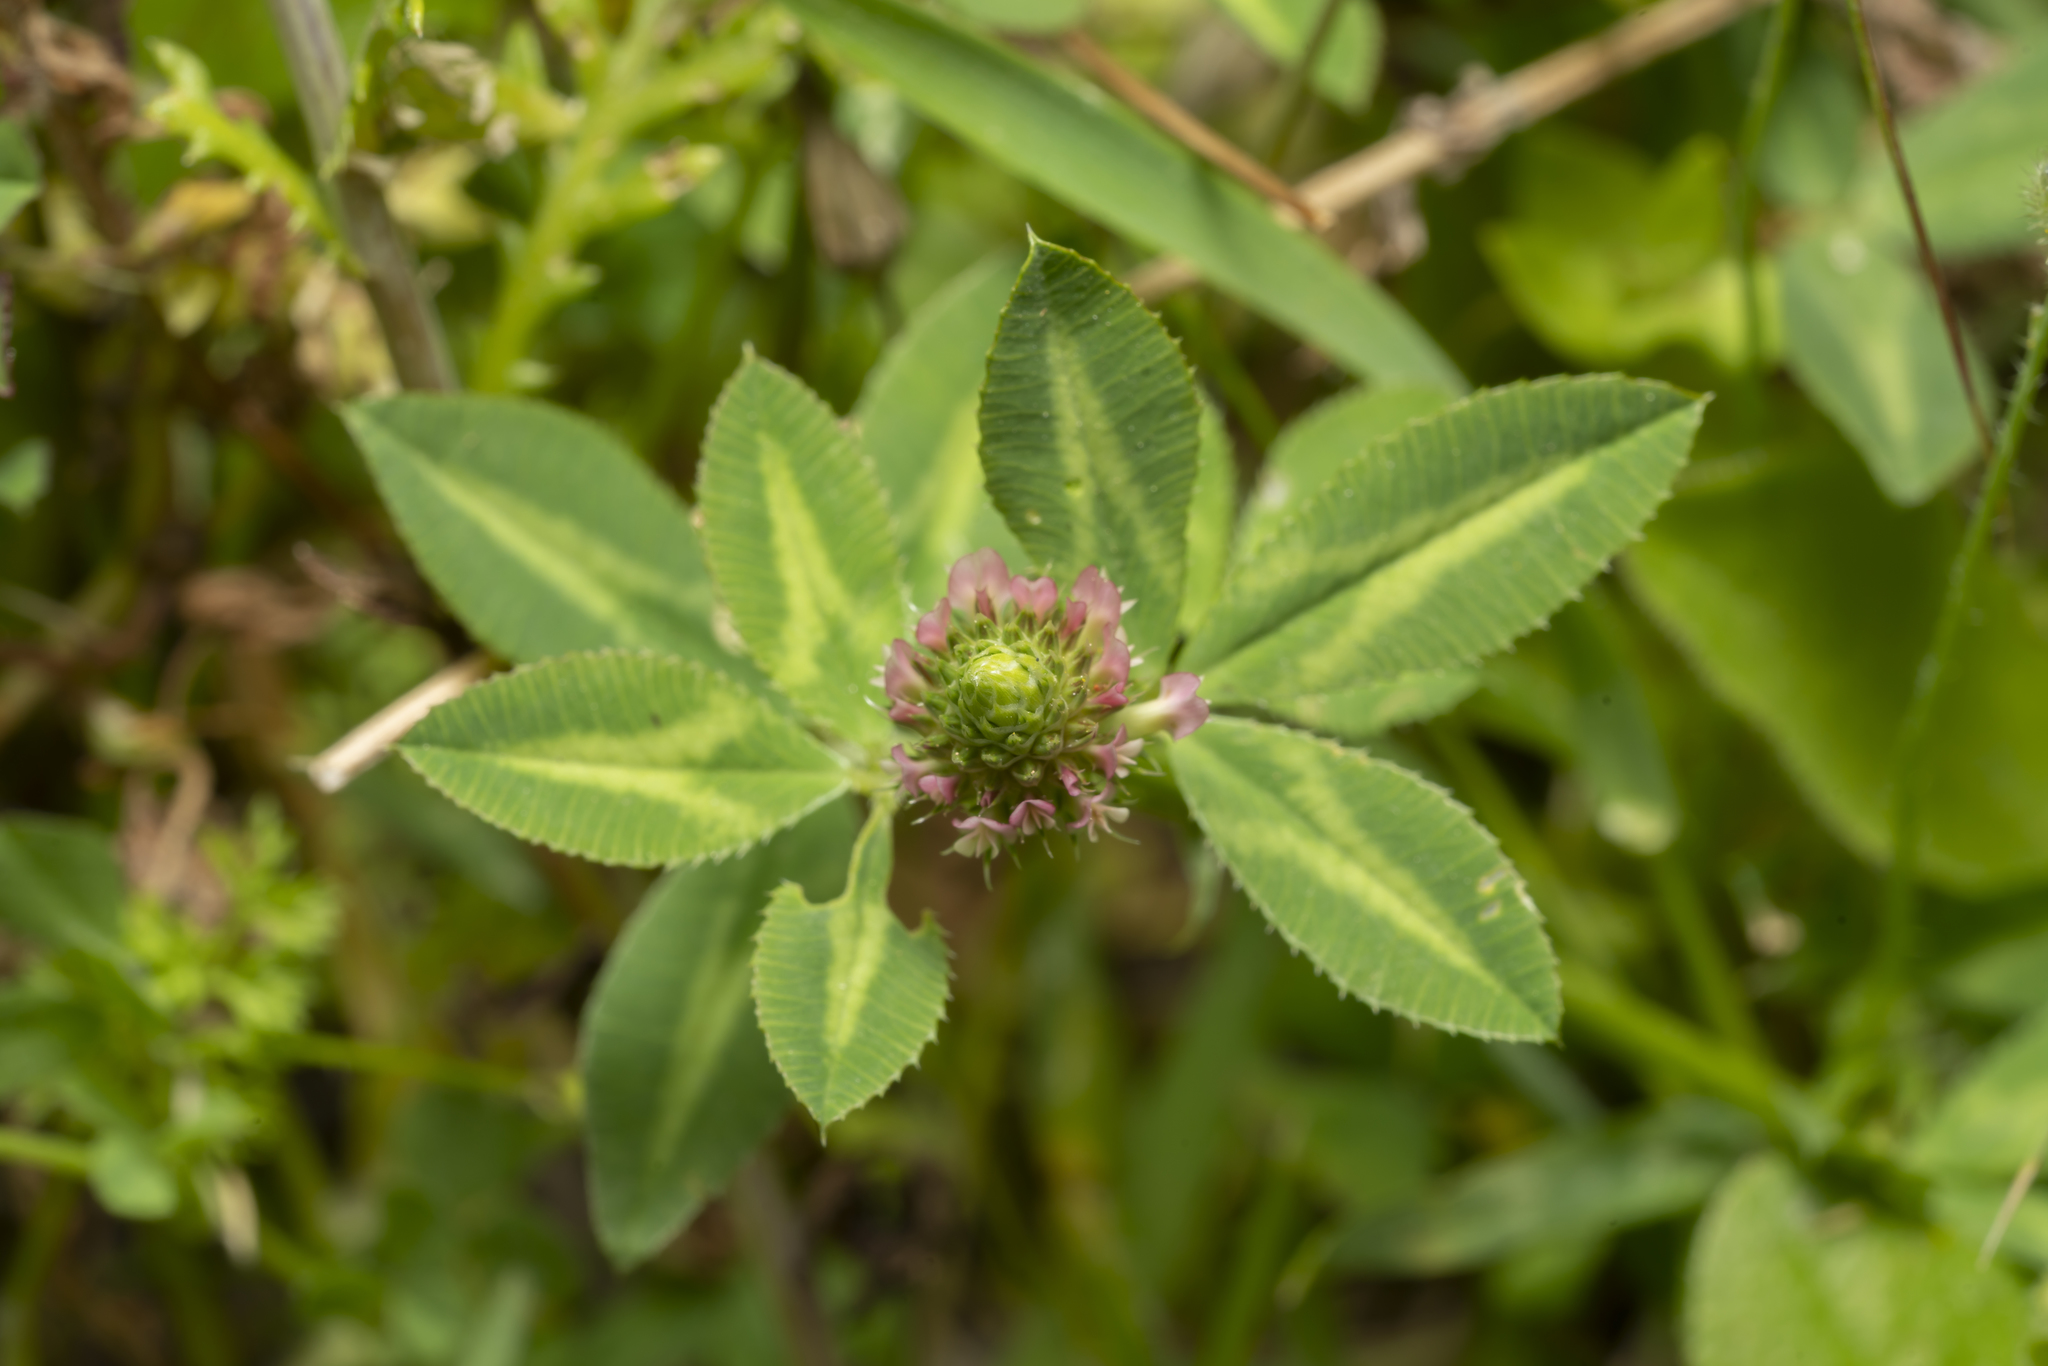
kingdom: Plantae
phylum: Tracheophyta
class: Magnoliopsida
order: Fabales
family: Fabaceae
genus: Trifolium
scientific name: Trifolium nigrescens
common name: Small white clover
